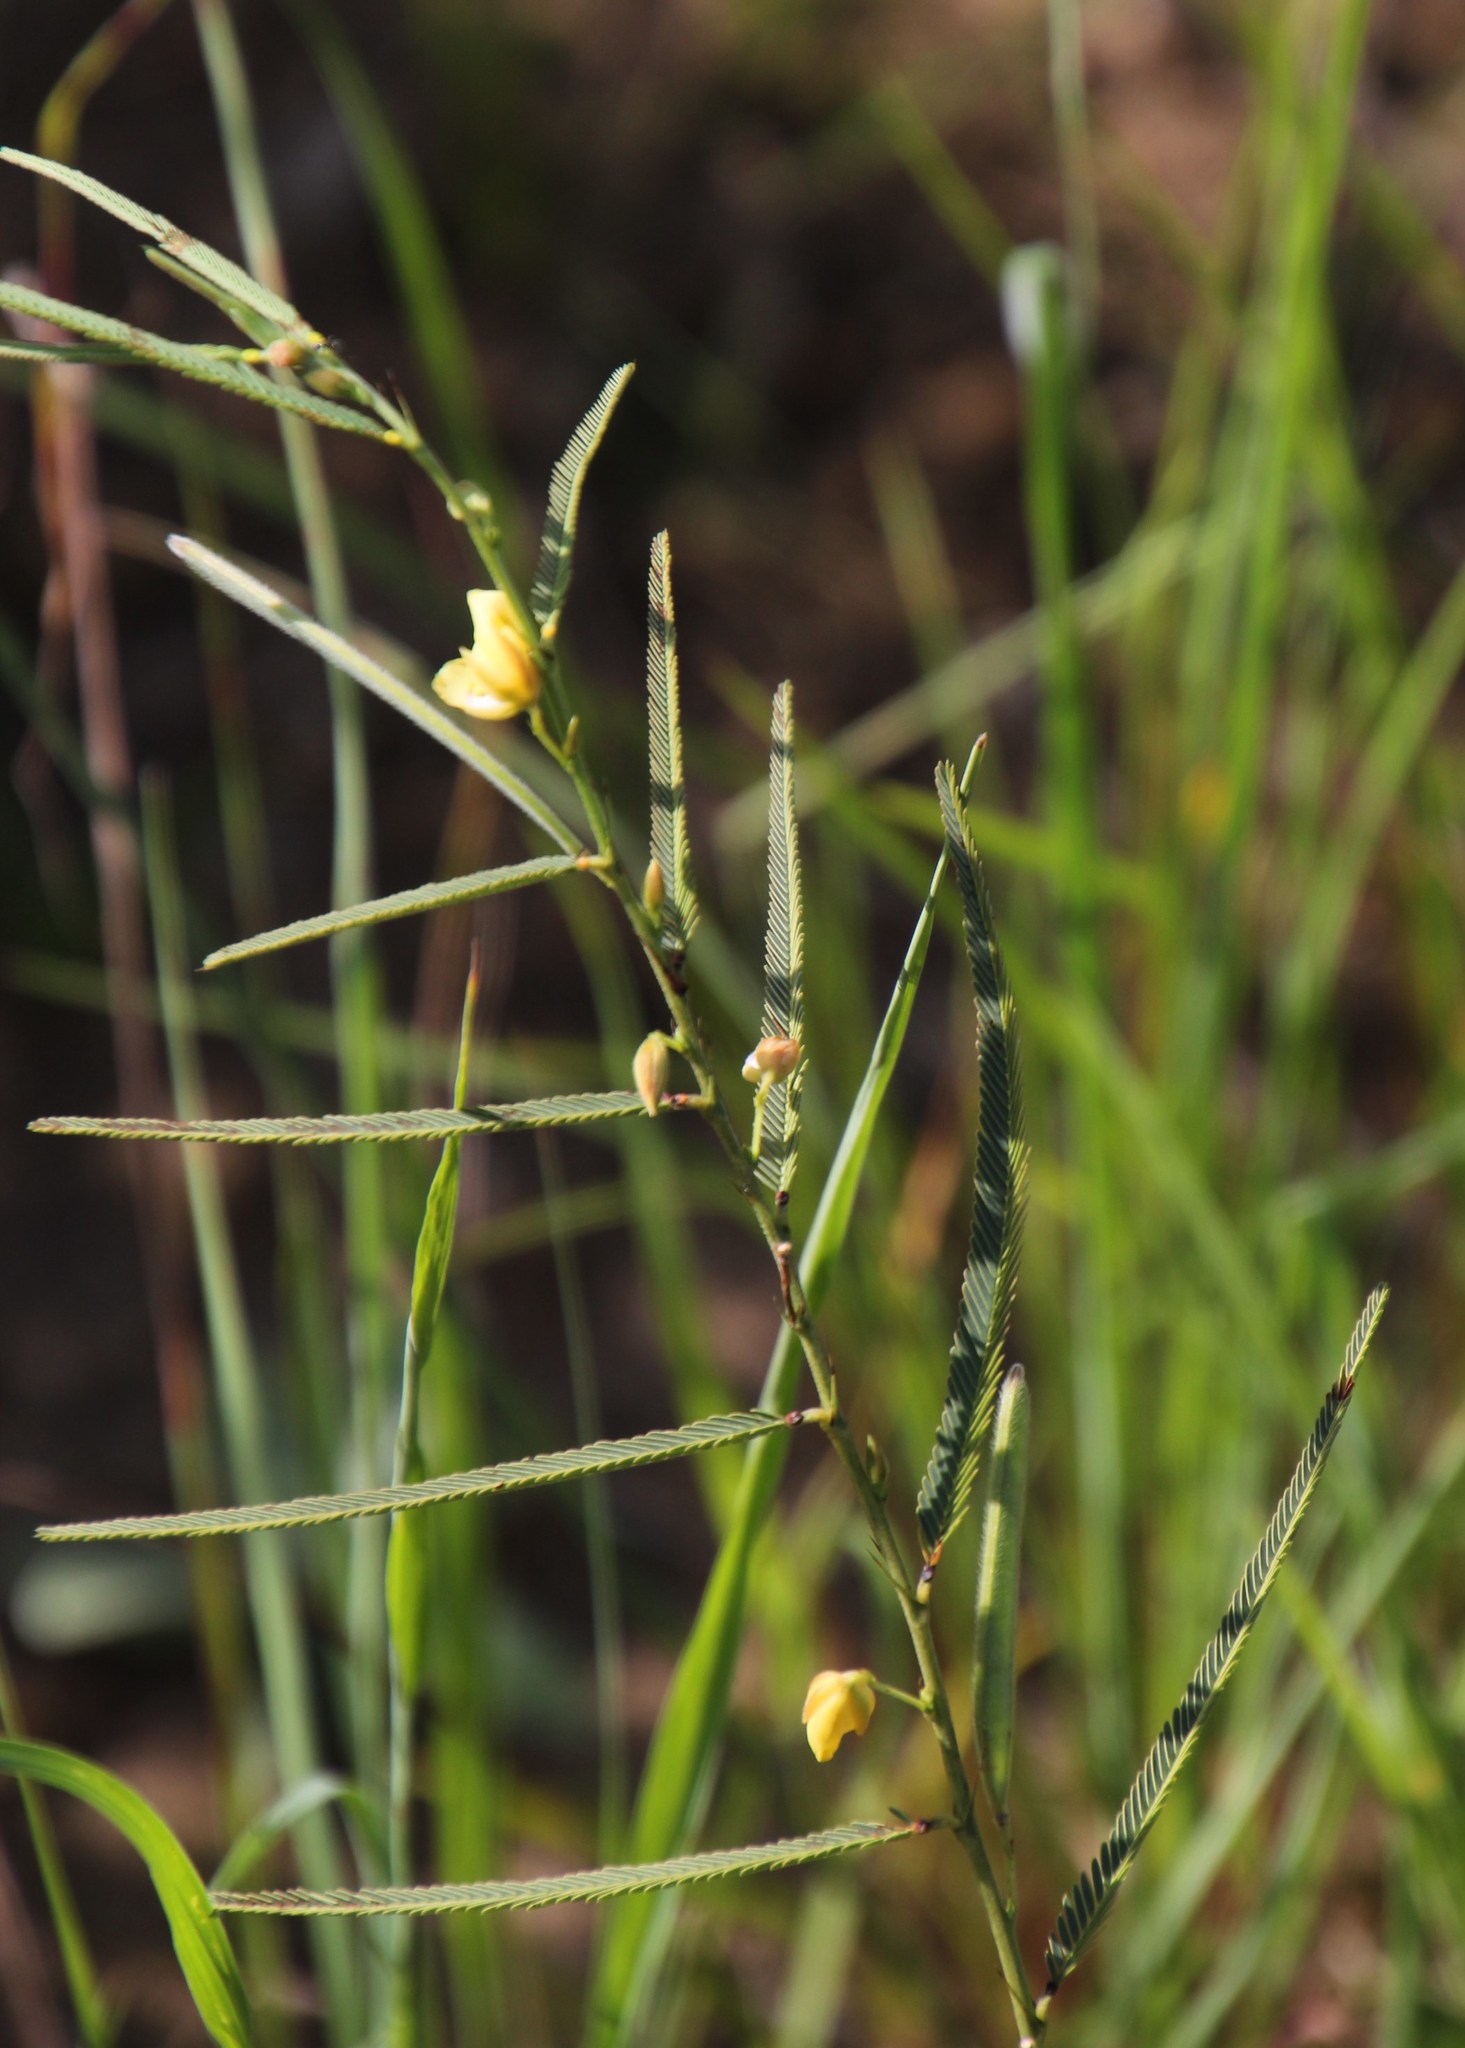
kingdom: Plantae
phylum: Tracheophyta
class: Magnoliopsida
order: Fabales
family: Fabaceae
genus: Chamaecrista
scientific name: Chamaecrista mimosoides
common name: Fish-bone cassia
